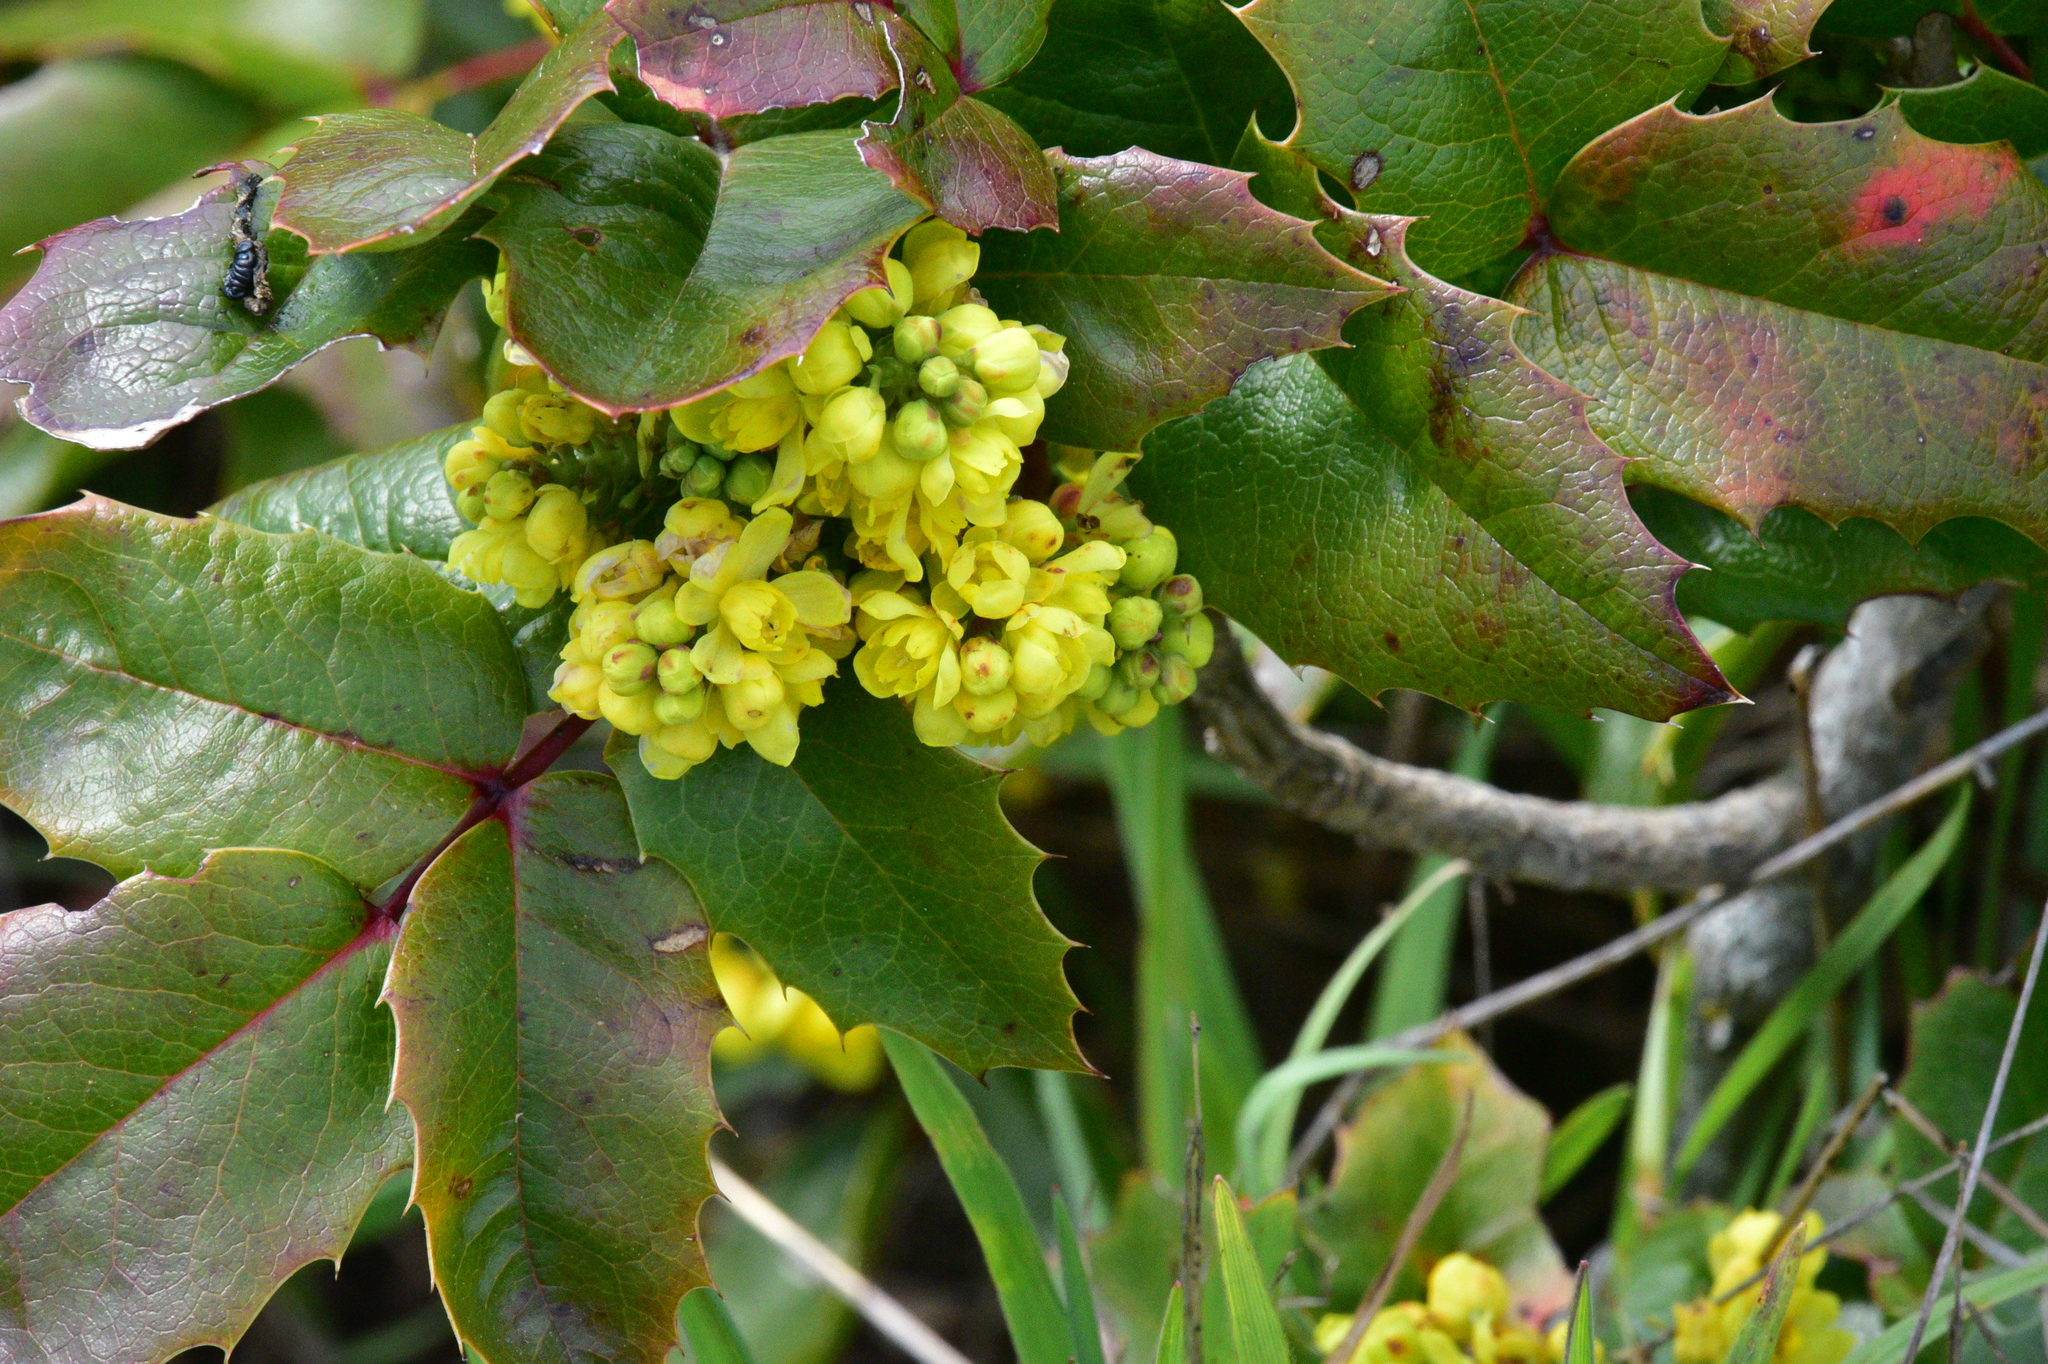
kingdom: Plantae
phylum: Tracheophyta
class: Magnoliopsida
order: Ranunculales
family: Berberidaceae
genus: Mahonia
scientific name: Mahonia aquifolium
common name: Oregon-grape
